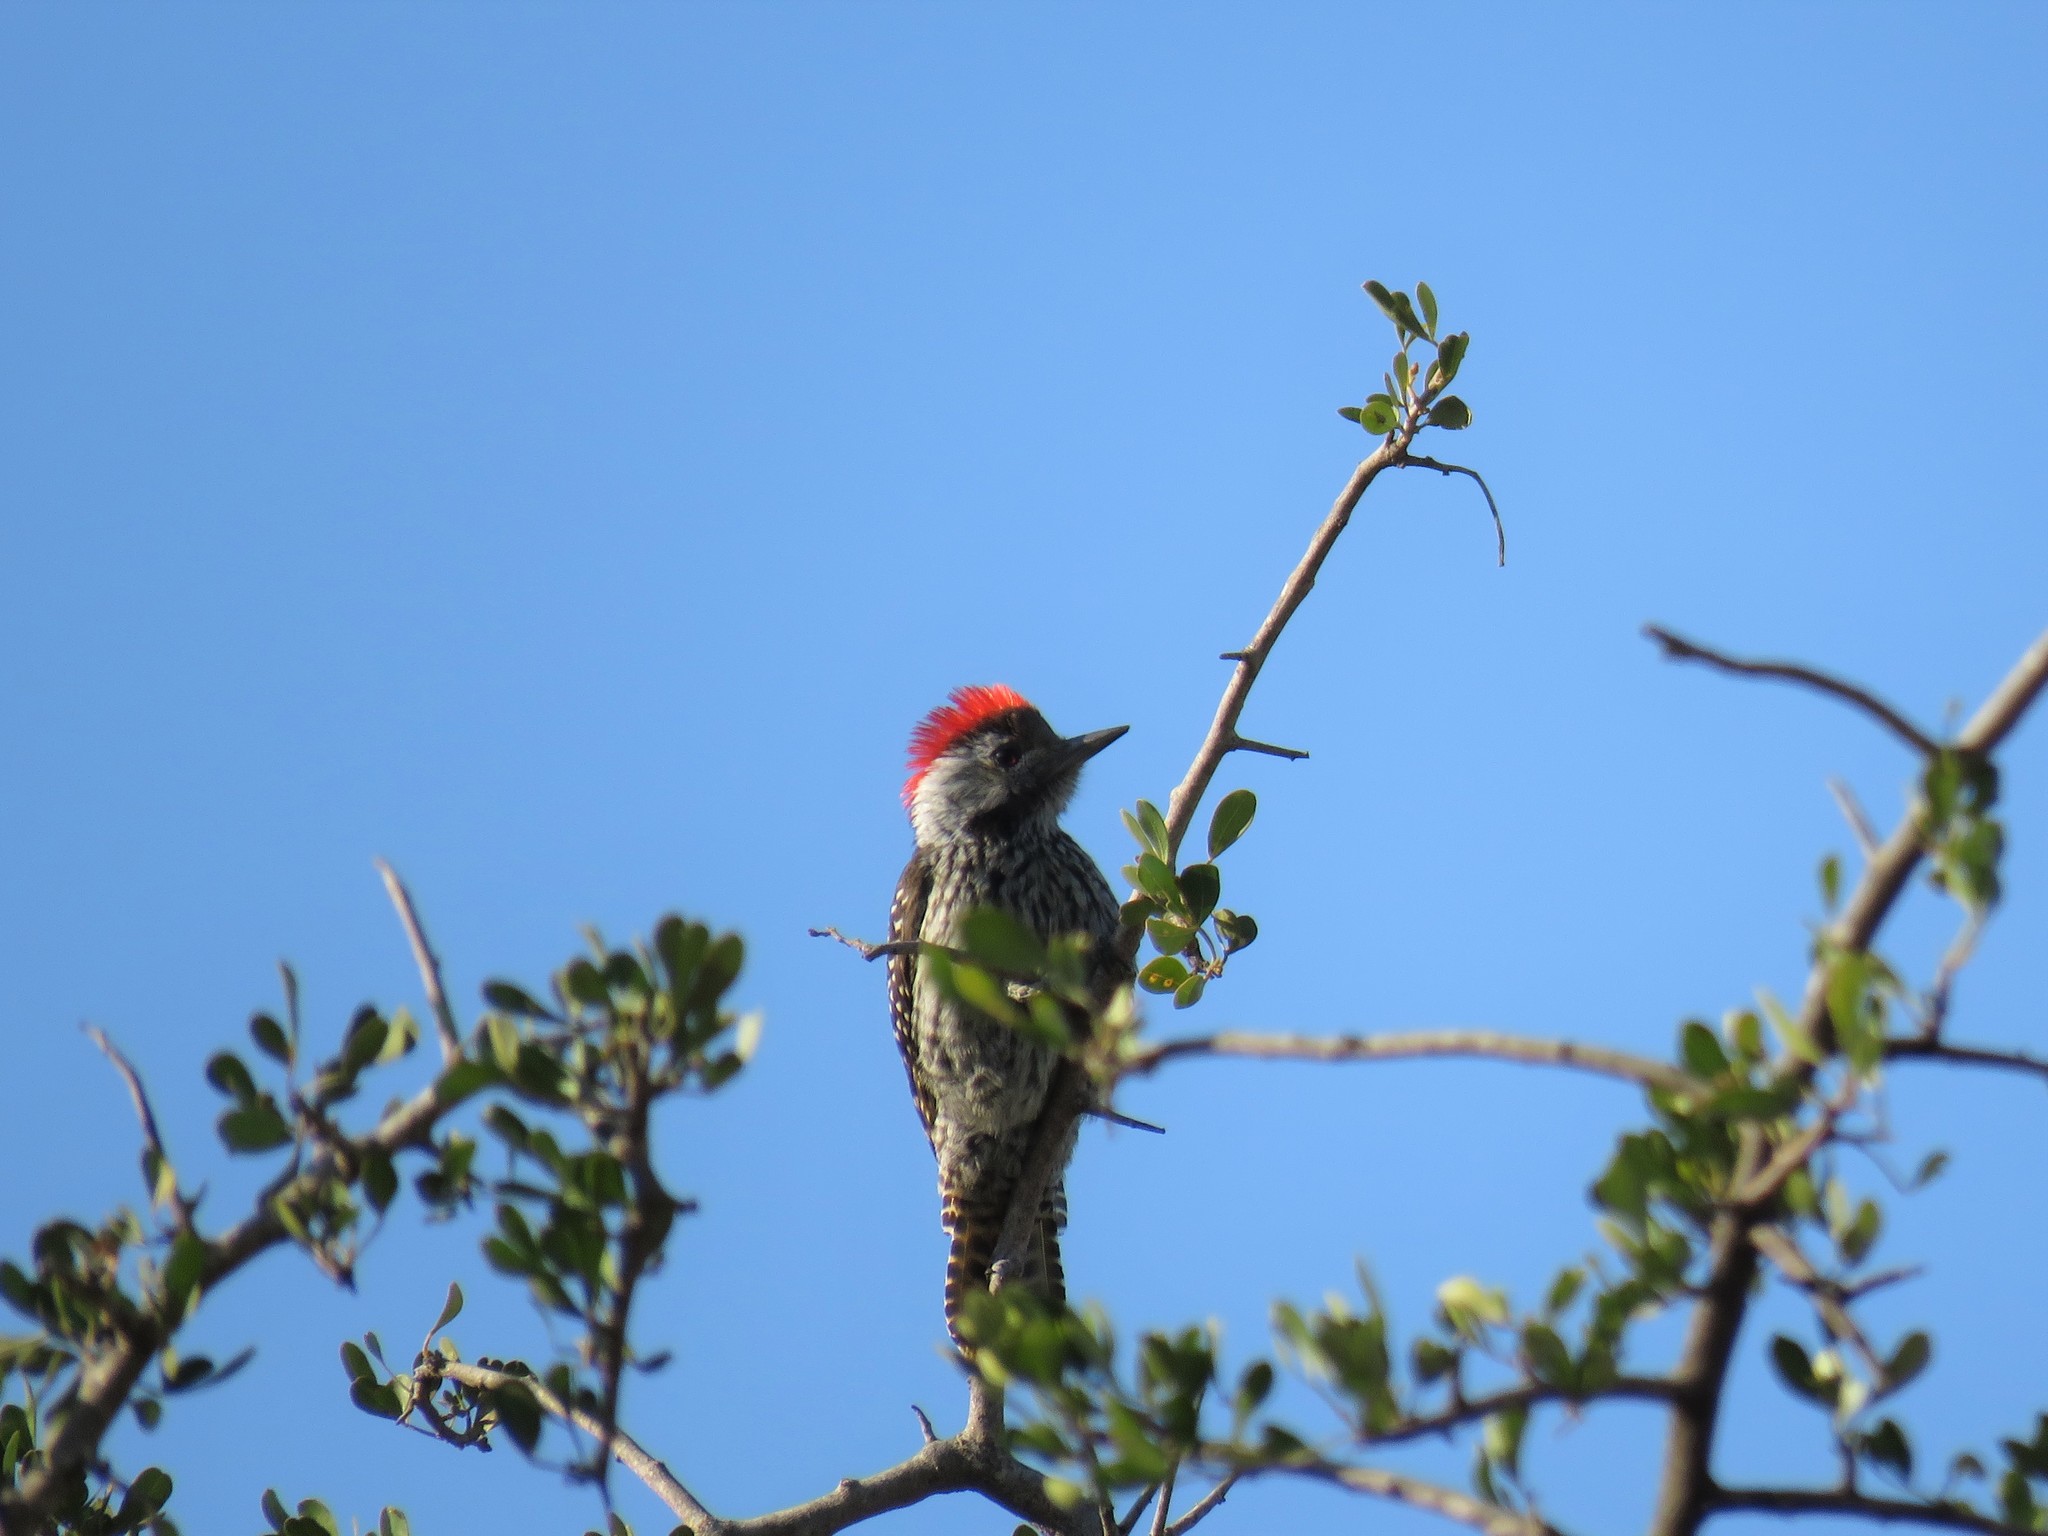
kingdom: Animalia
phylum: Chordata
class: Aves
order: Piciformes
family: Picidae
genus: Dendropicos
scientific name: Dendropicos fuscescens
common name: Cardinal woodpecker
